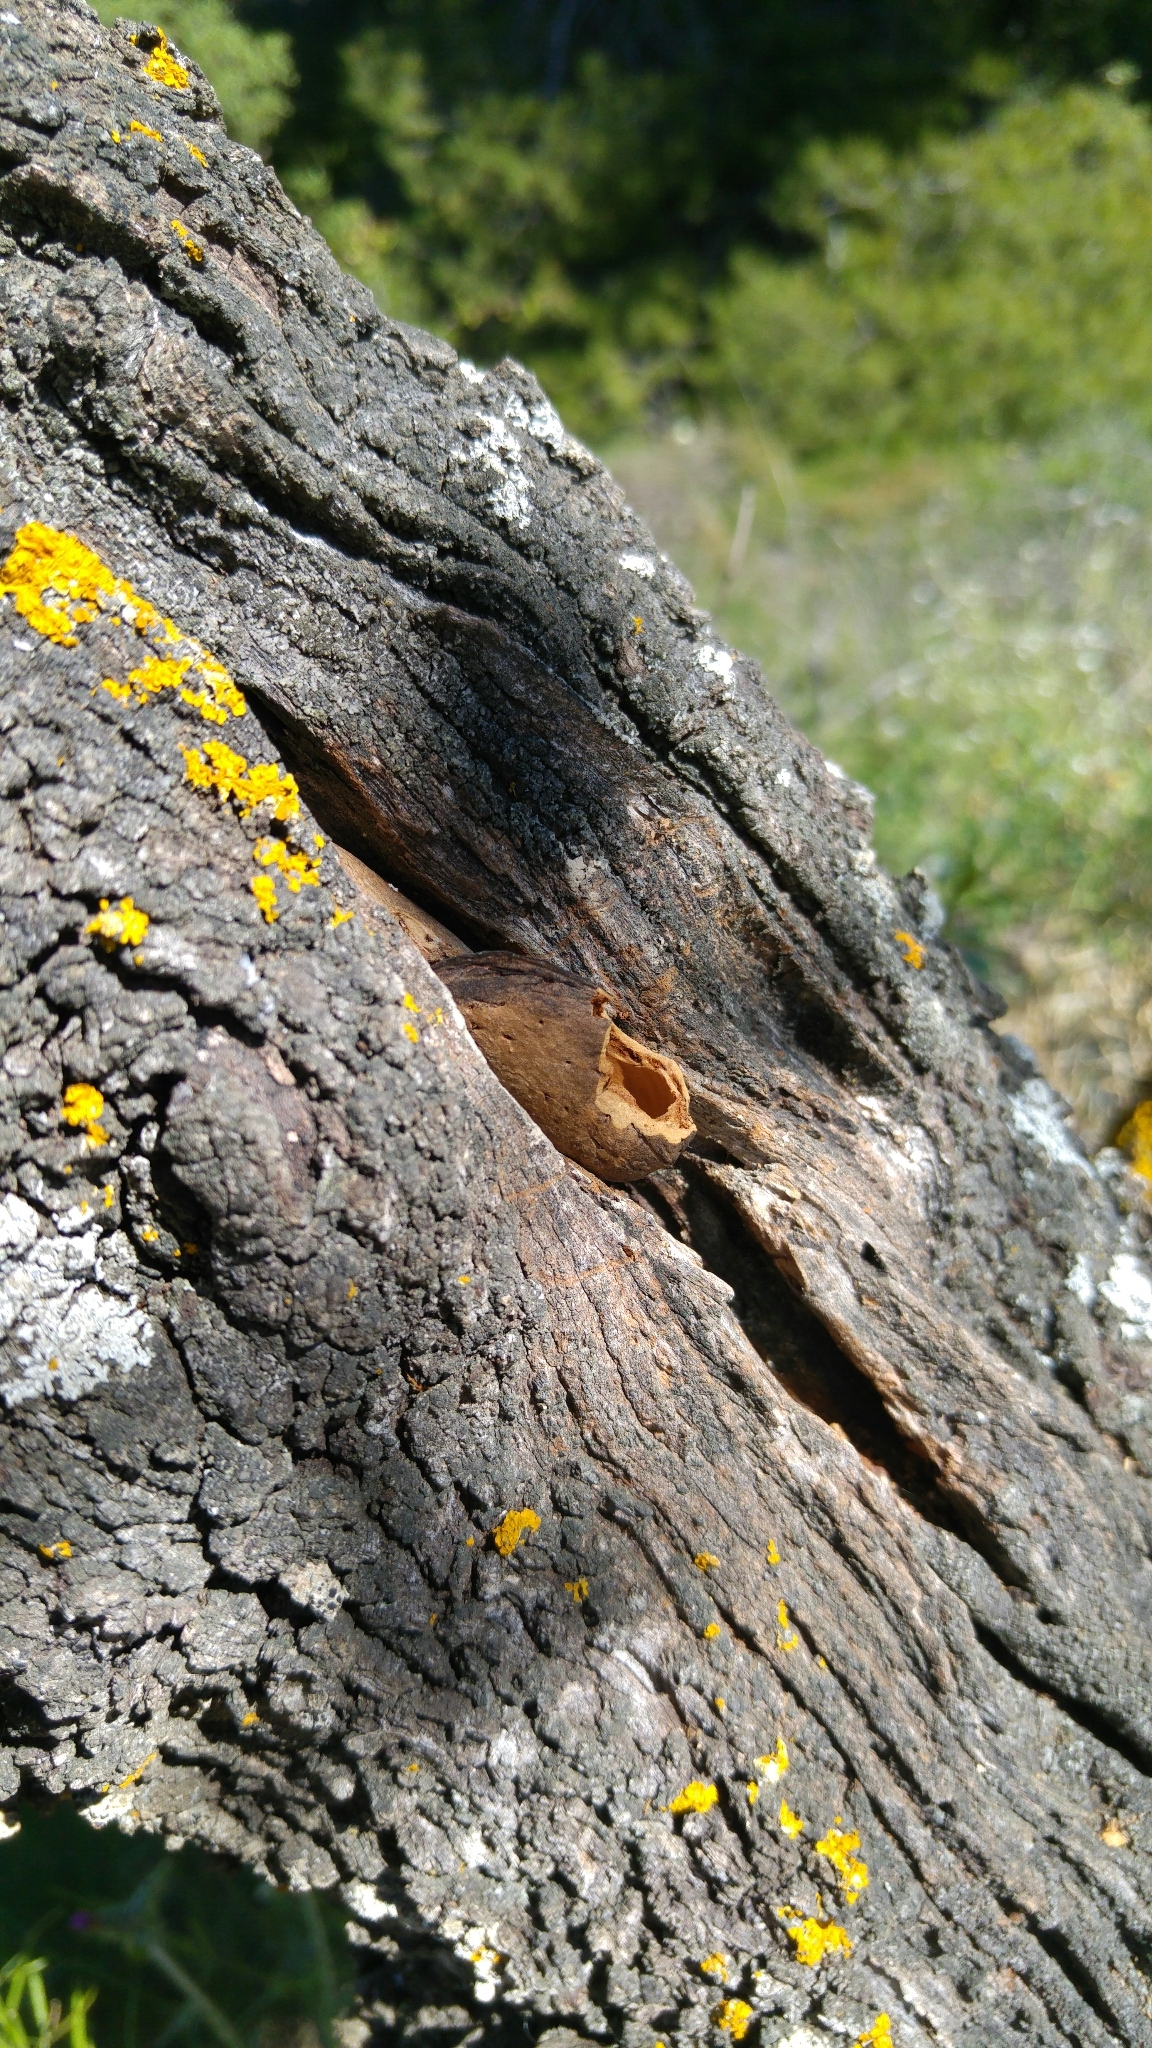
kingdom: Plantae
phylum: Tracheophyta
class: Magnoliopsida
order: Rosales
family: Rosaceae
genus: Prunus
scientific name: Prunus amygdalus
